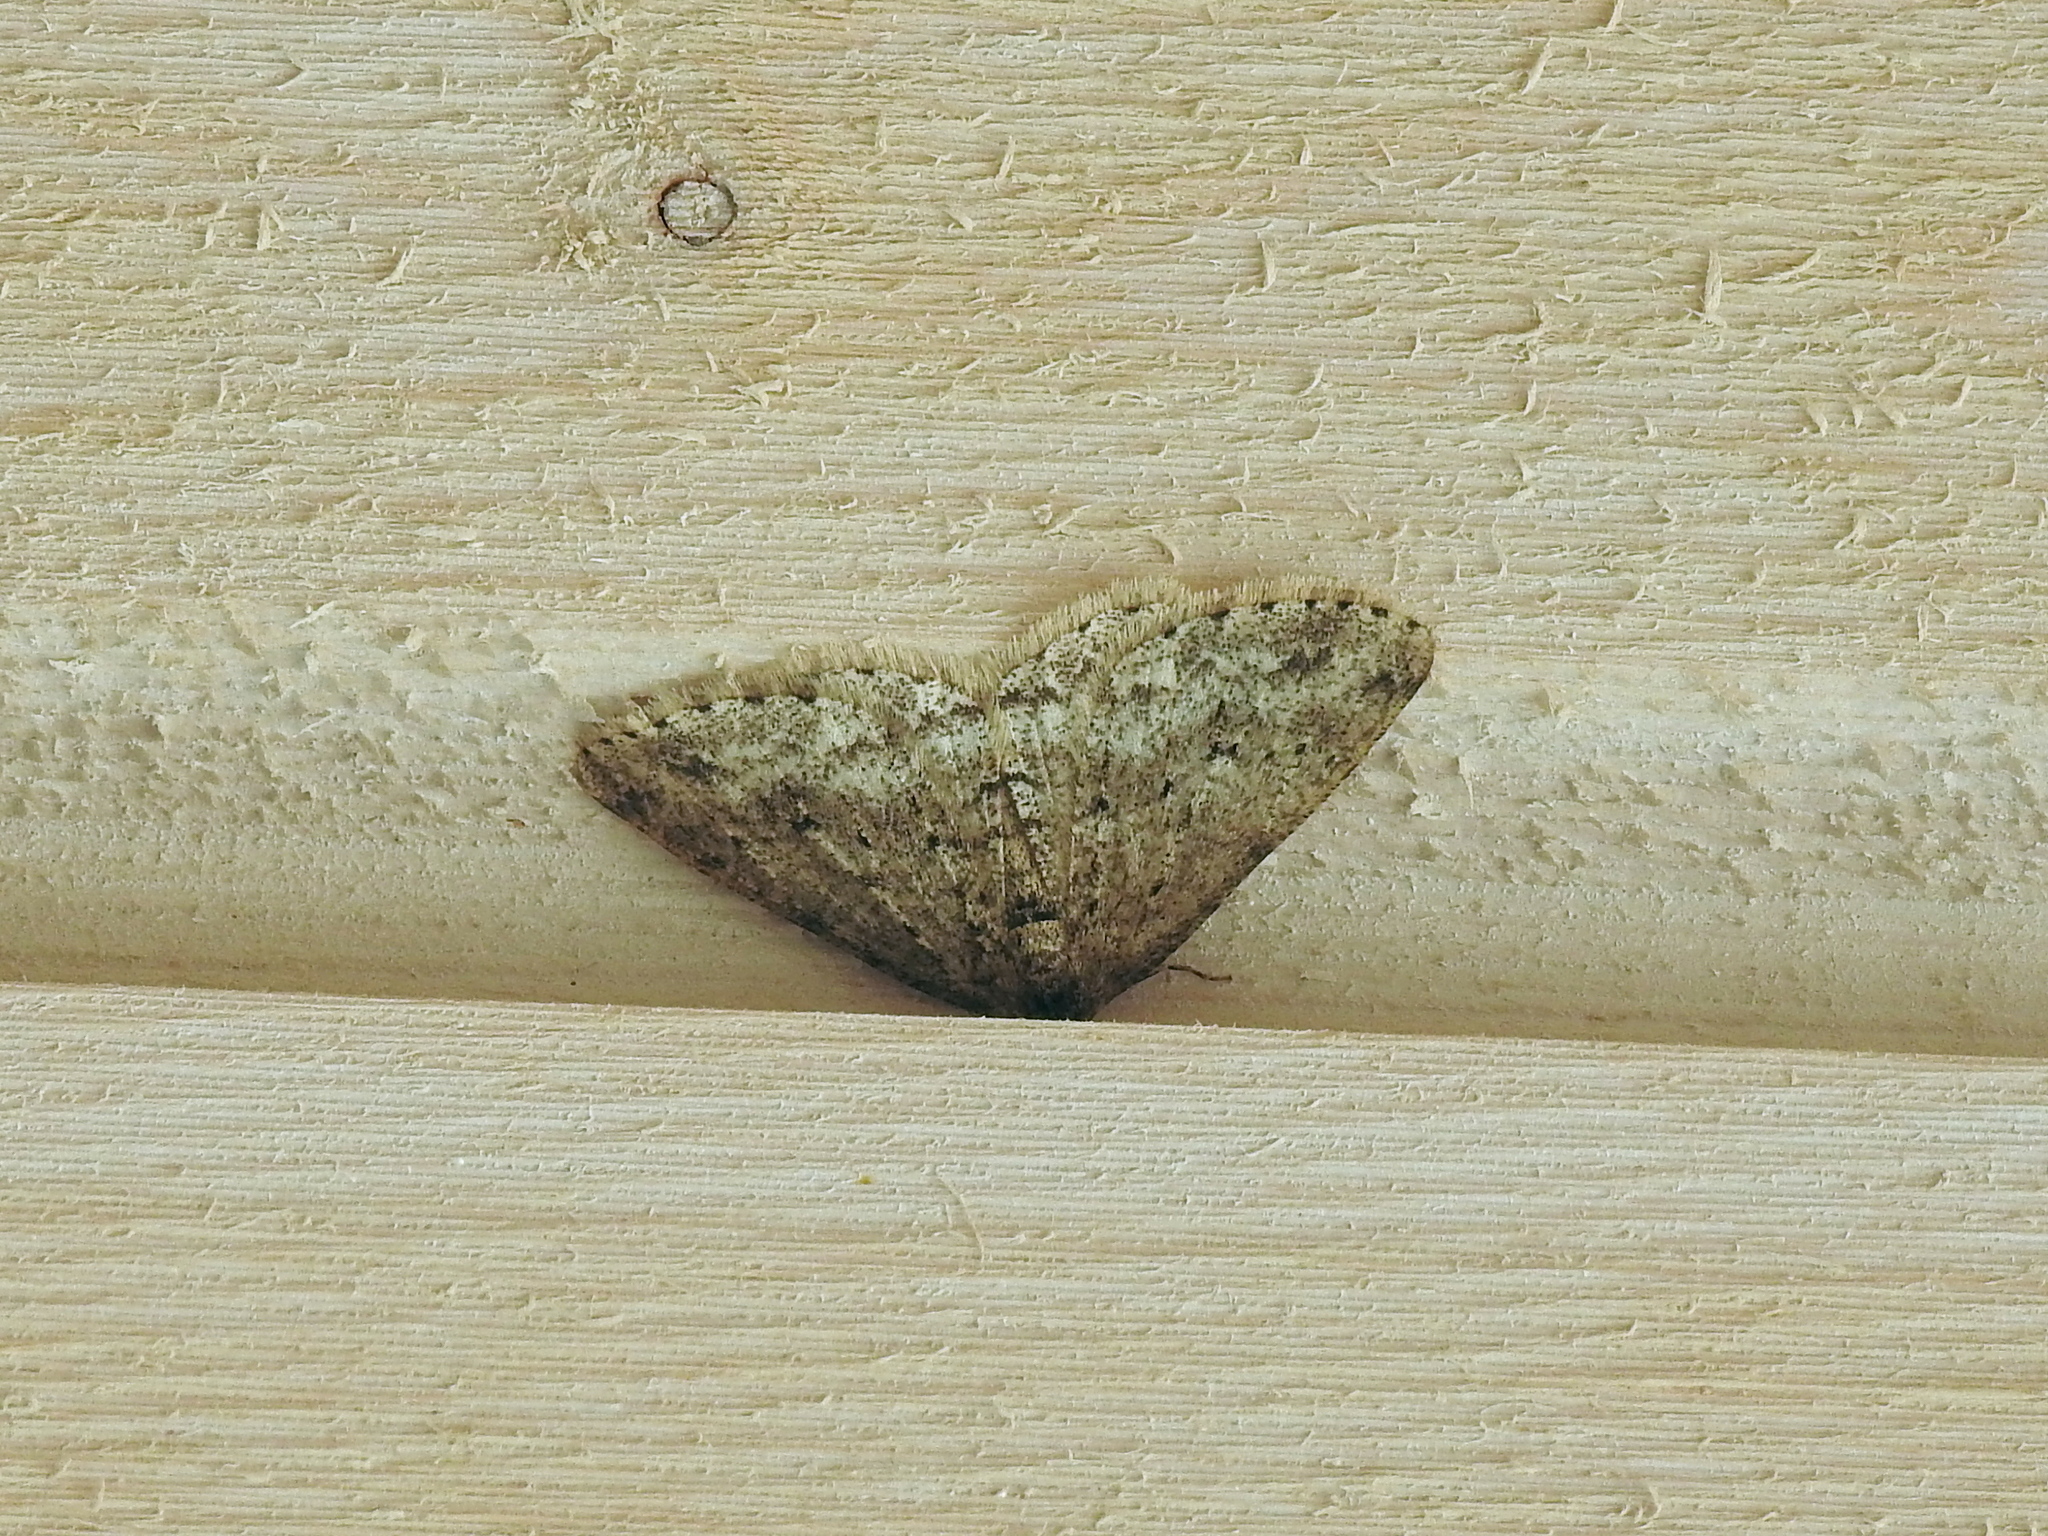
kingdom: Animalia
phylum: Arthropoda
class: Insecta
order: Lepidoptera
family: Geometridae
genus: Ectropis
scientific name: Ectropis crepuscularia
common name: Engrailed
